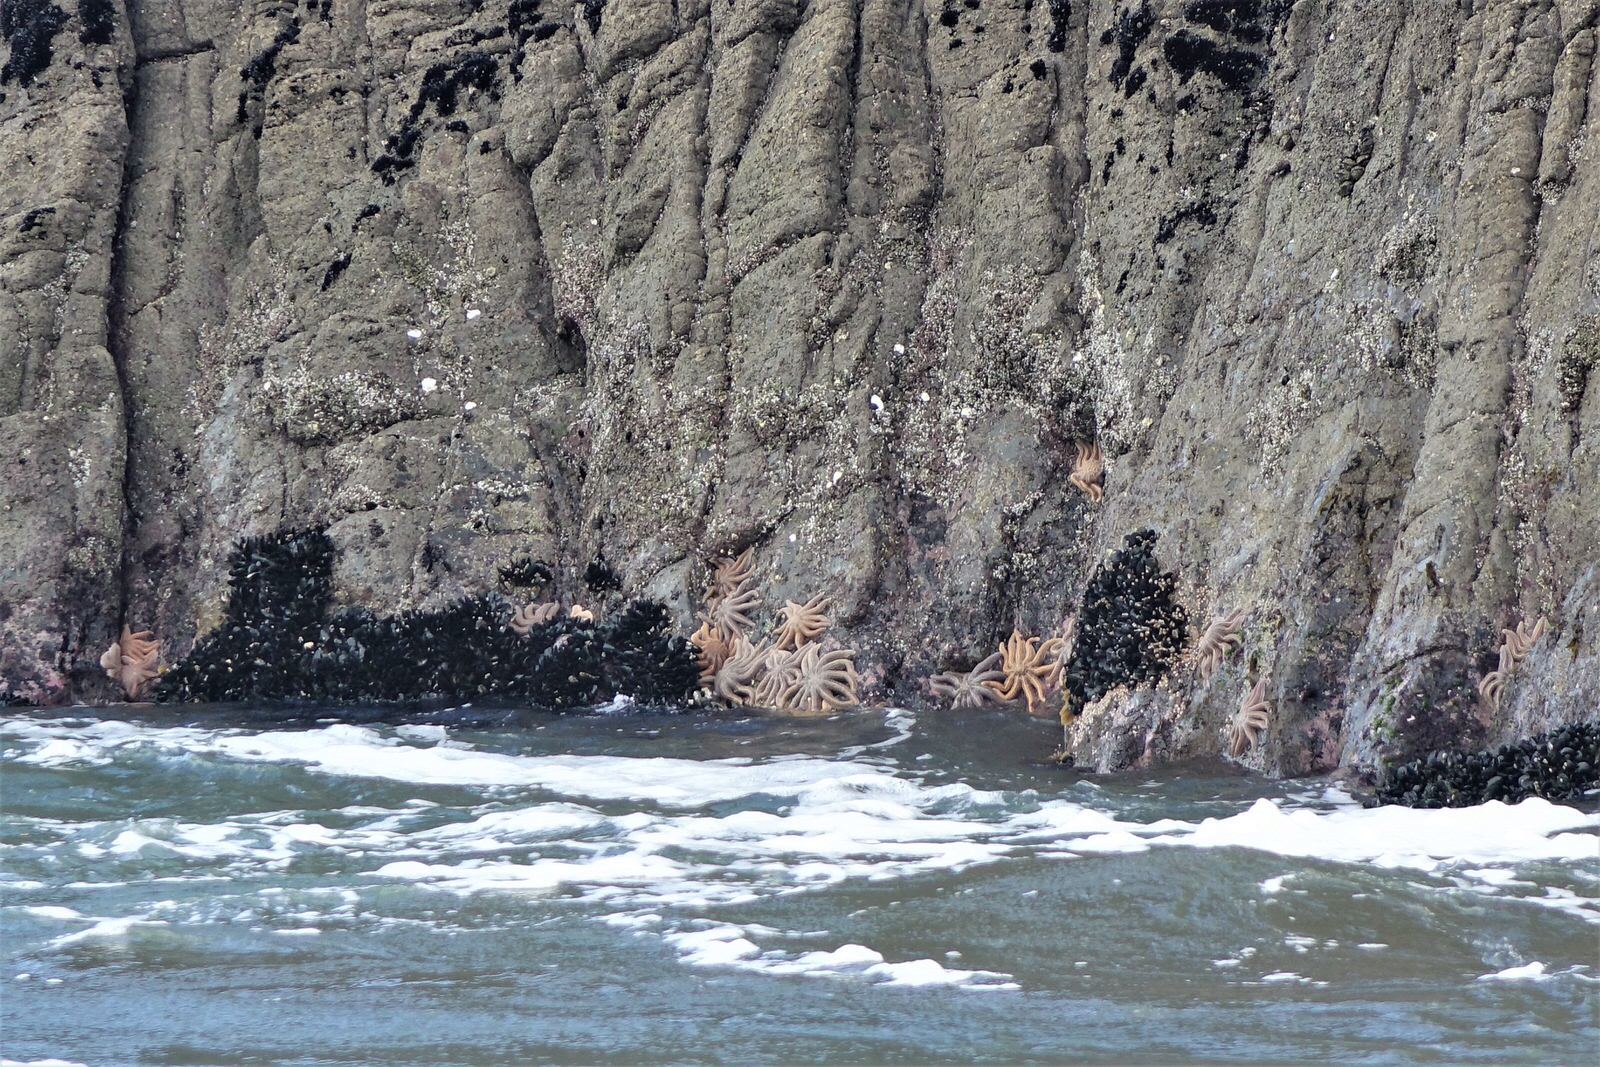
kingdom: Animalia
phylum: Echinodermata
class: Asteroidea
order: Forcipulatida
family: Stichasteridae
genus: Stichaster
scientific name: Stichaster australis
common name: Reef starfish
